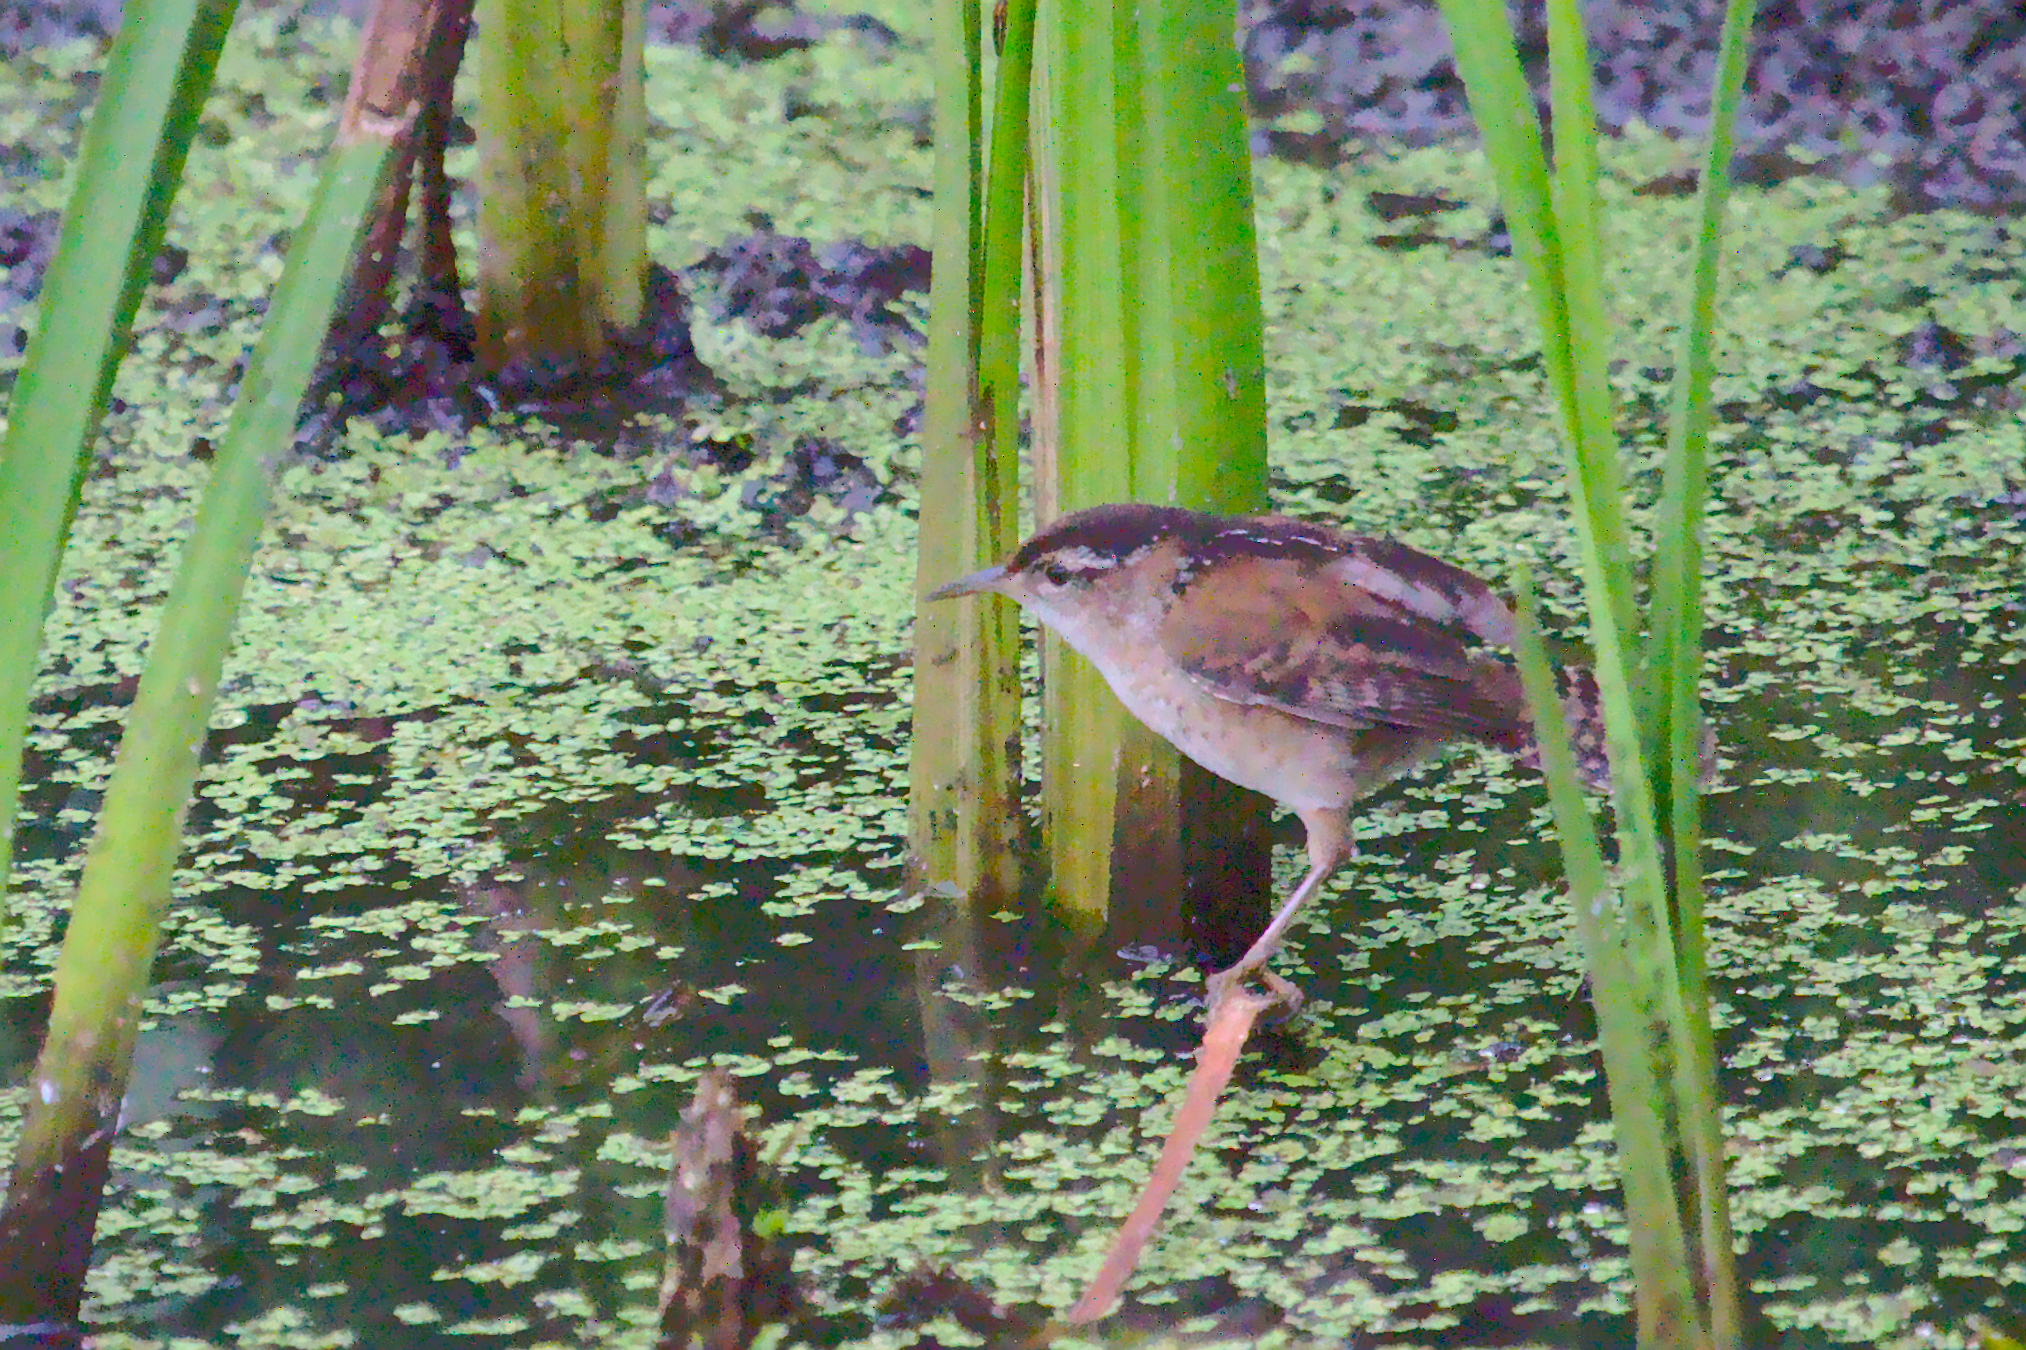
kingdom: Animalia
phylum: Chordata
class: Aves
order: Passeriformes
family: Troglodytidae
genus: Cistothorus
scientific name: Cistothorus palustris
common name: Marsh wren
